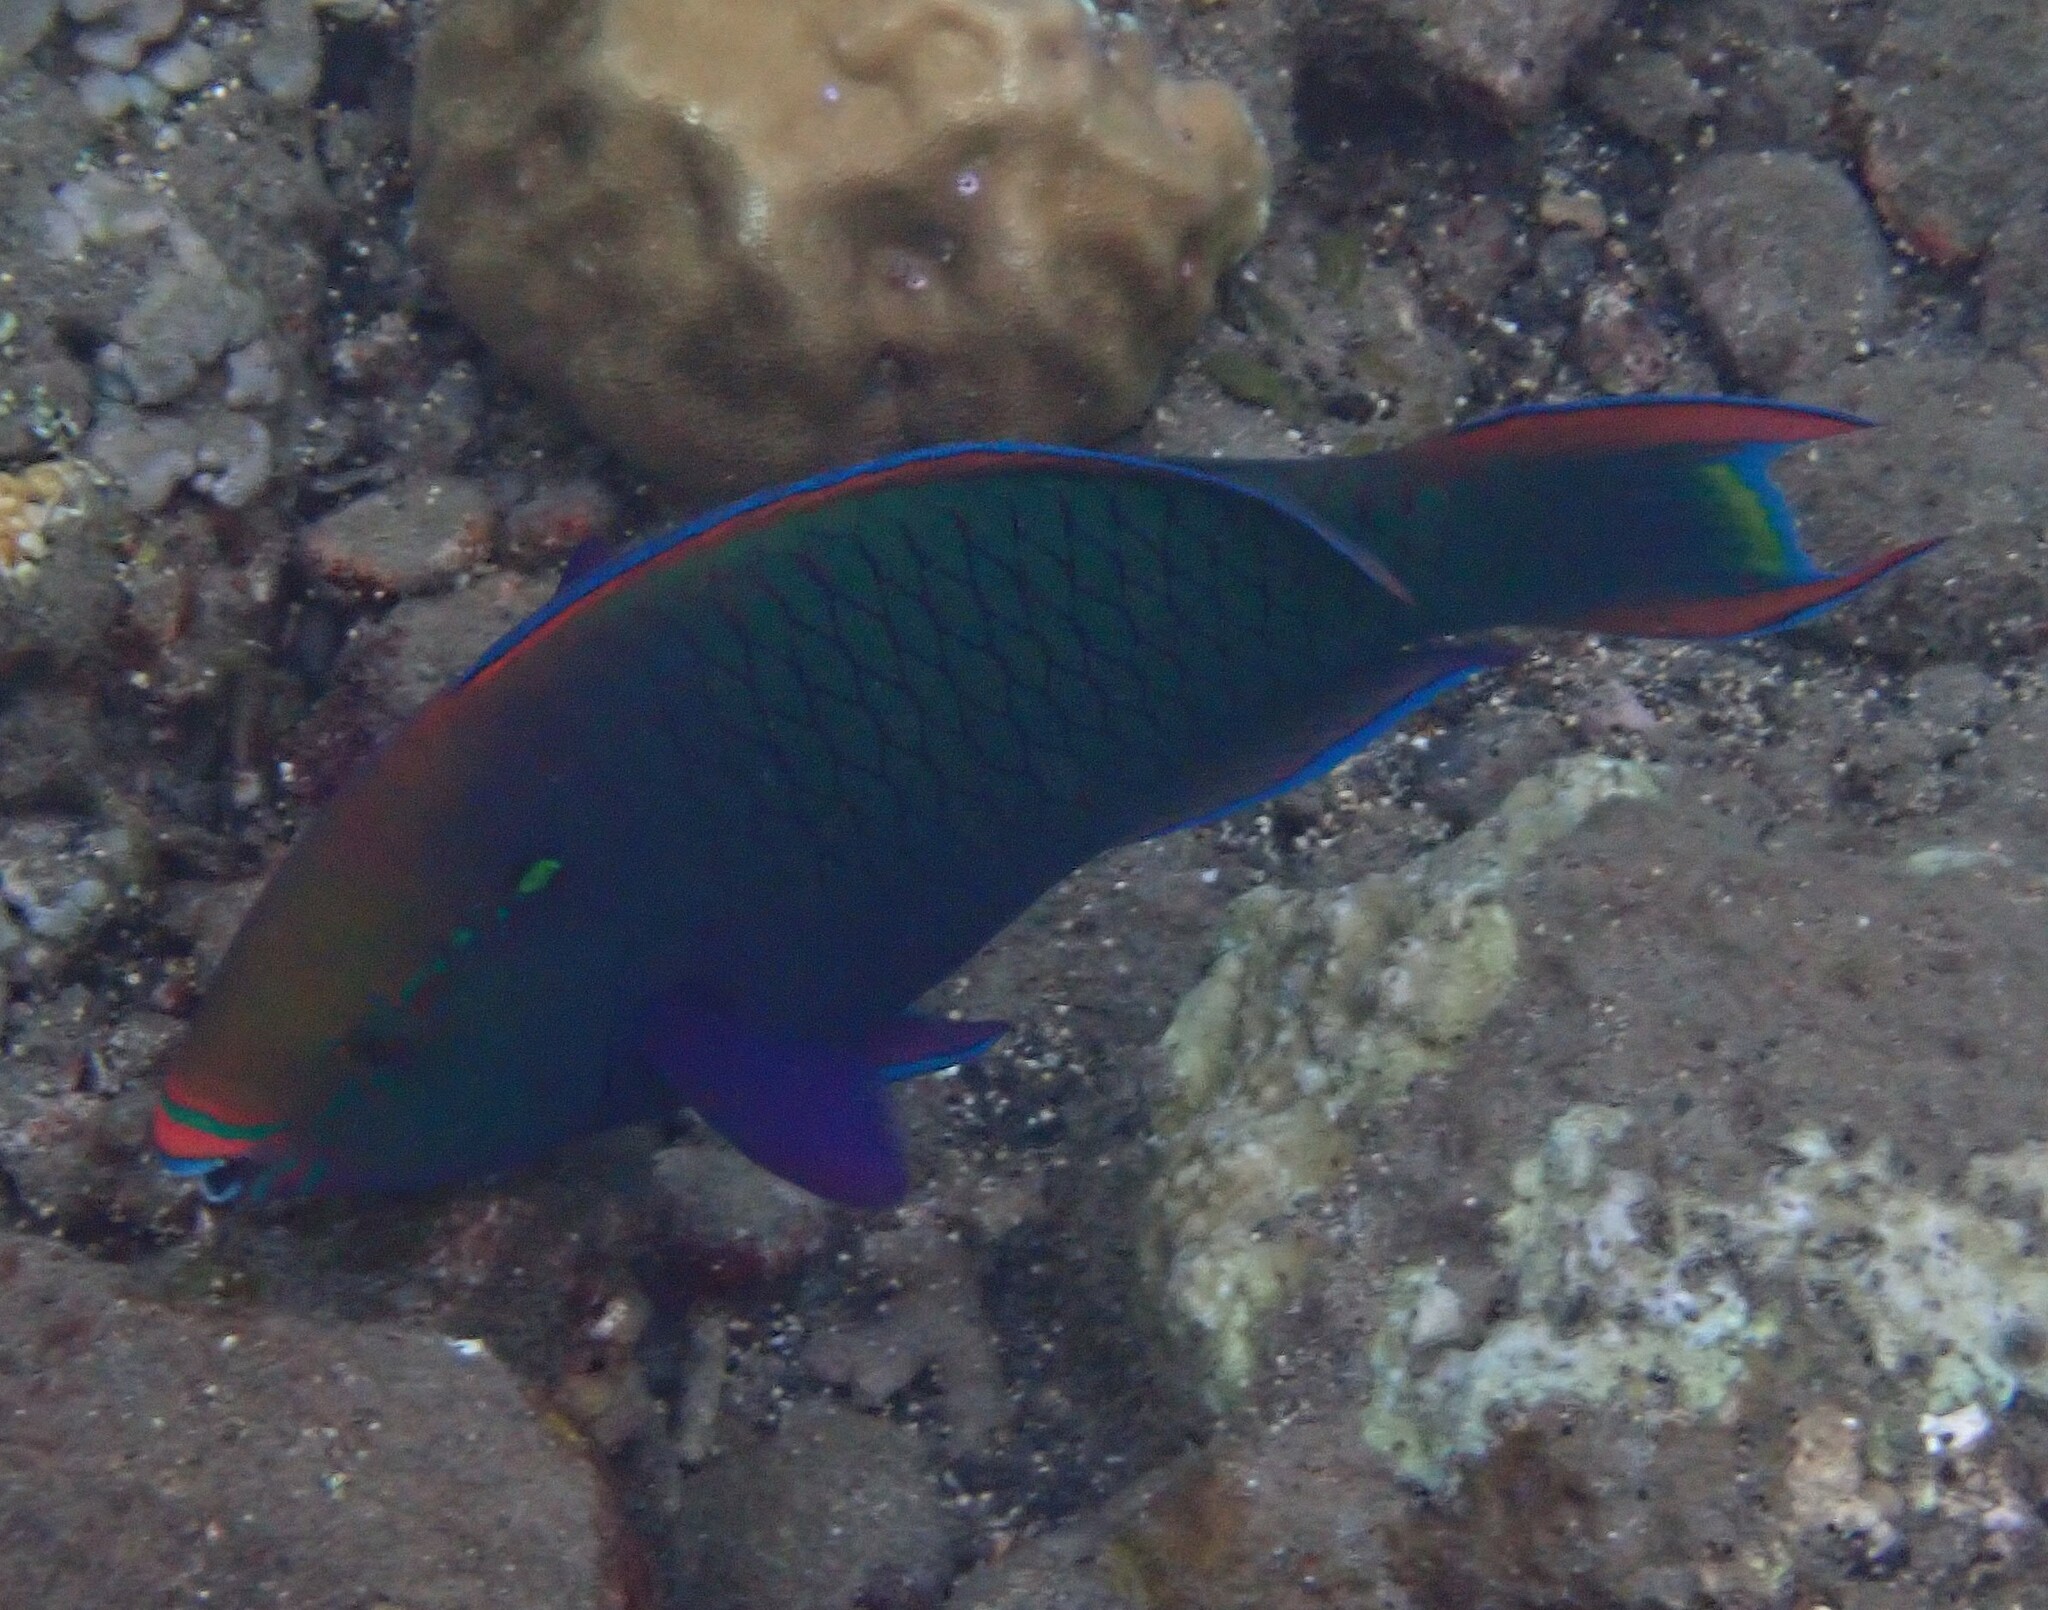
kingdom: Animalia
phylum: Chordata
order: Perciformes
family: Scaridae
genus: Scarus
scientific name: Scarus niger
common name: Dusky parrotfish
